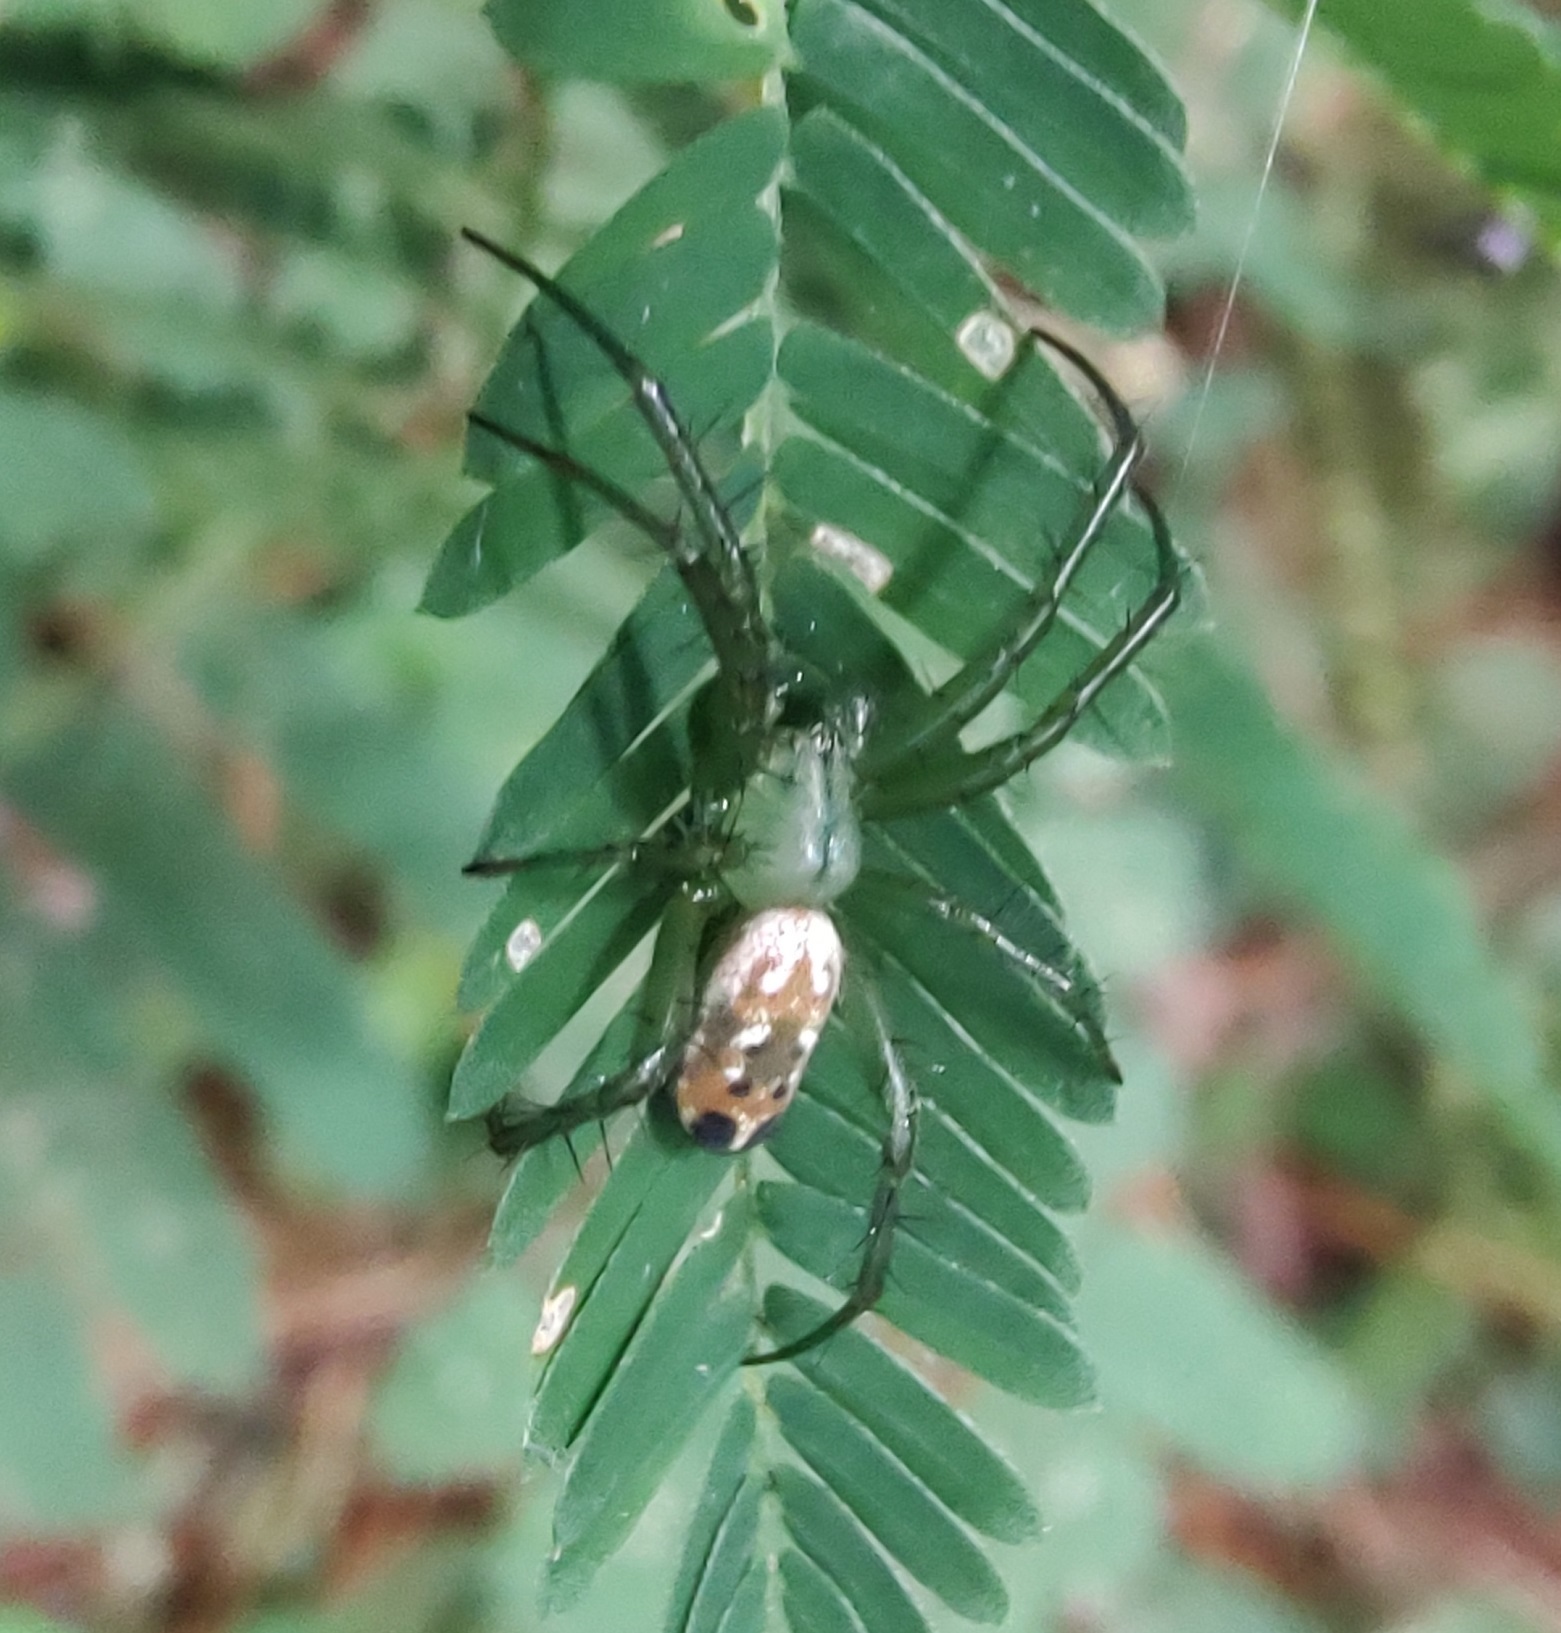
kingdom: Animalia
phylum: Arthropoda
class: Arachnida
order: Araneae
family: Araneidae
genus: Mangora
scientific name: Mangora strenua
